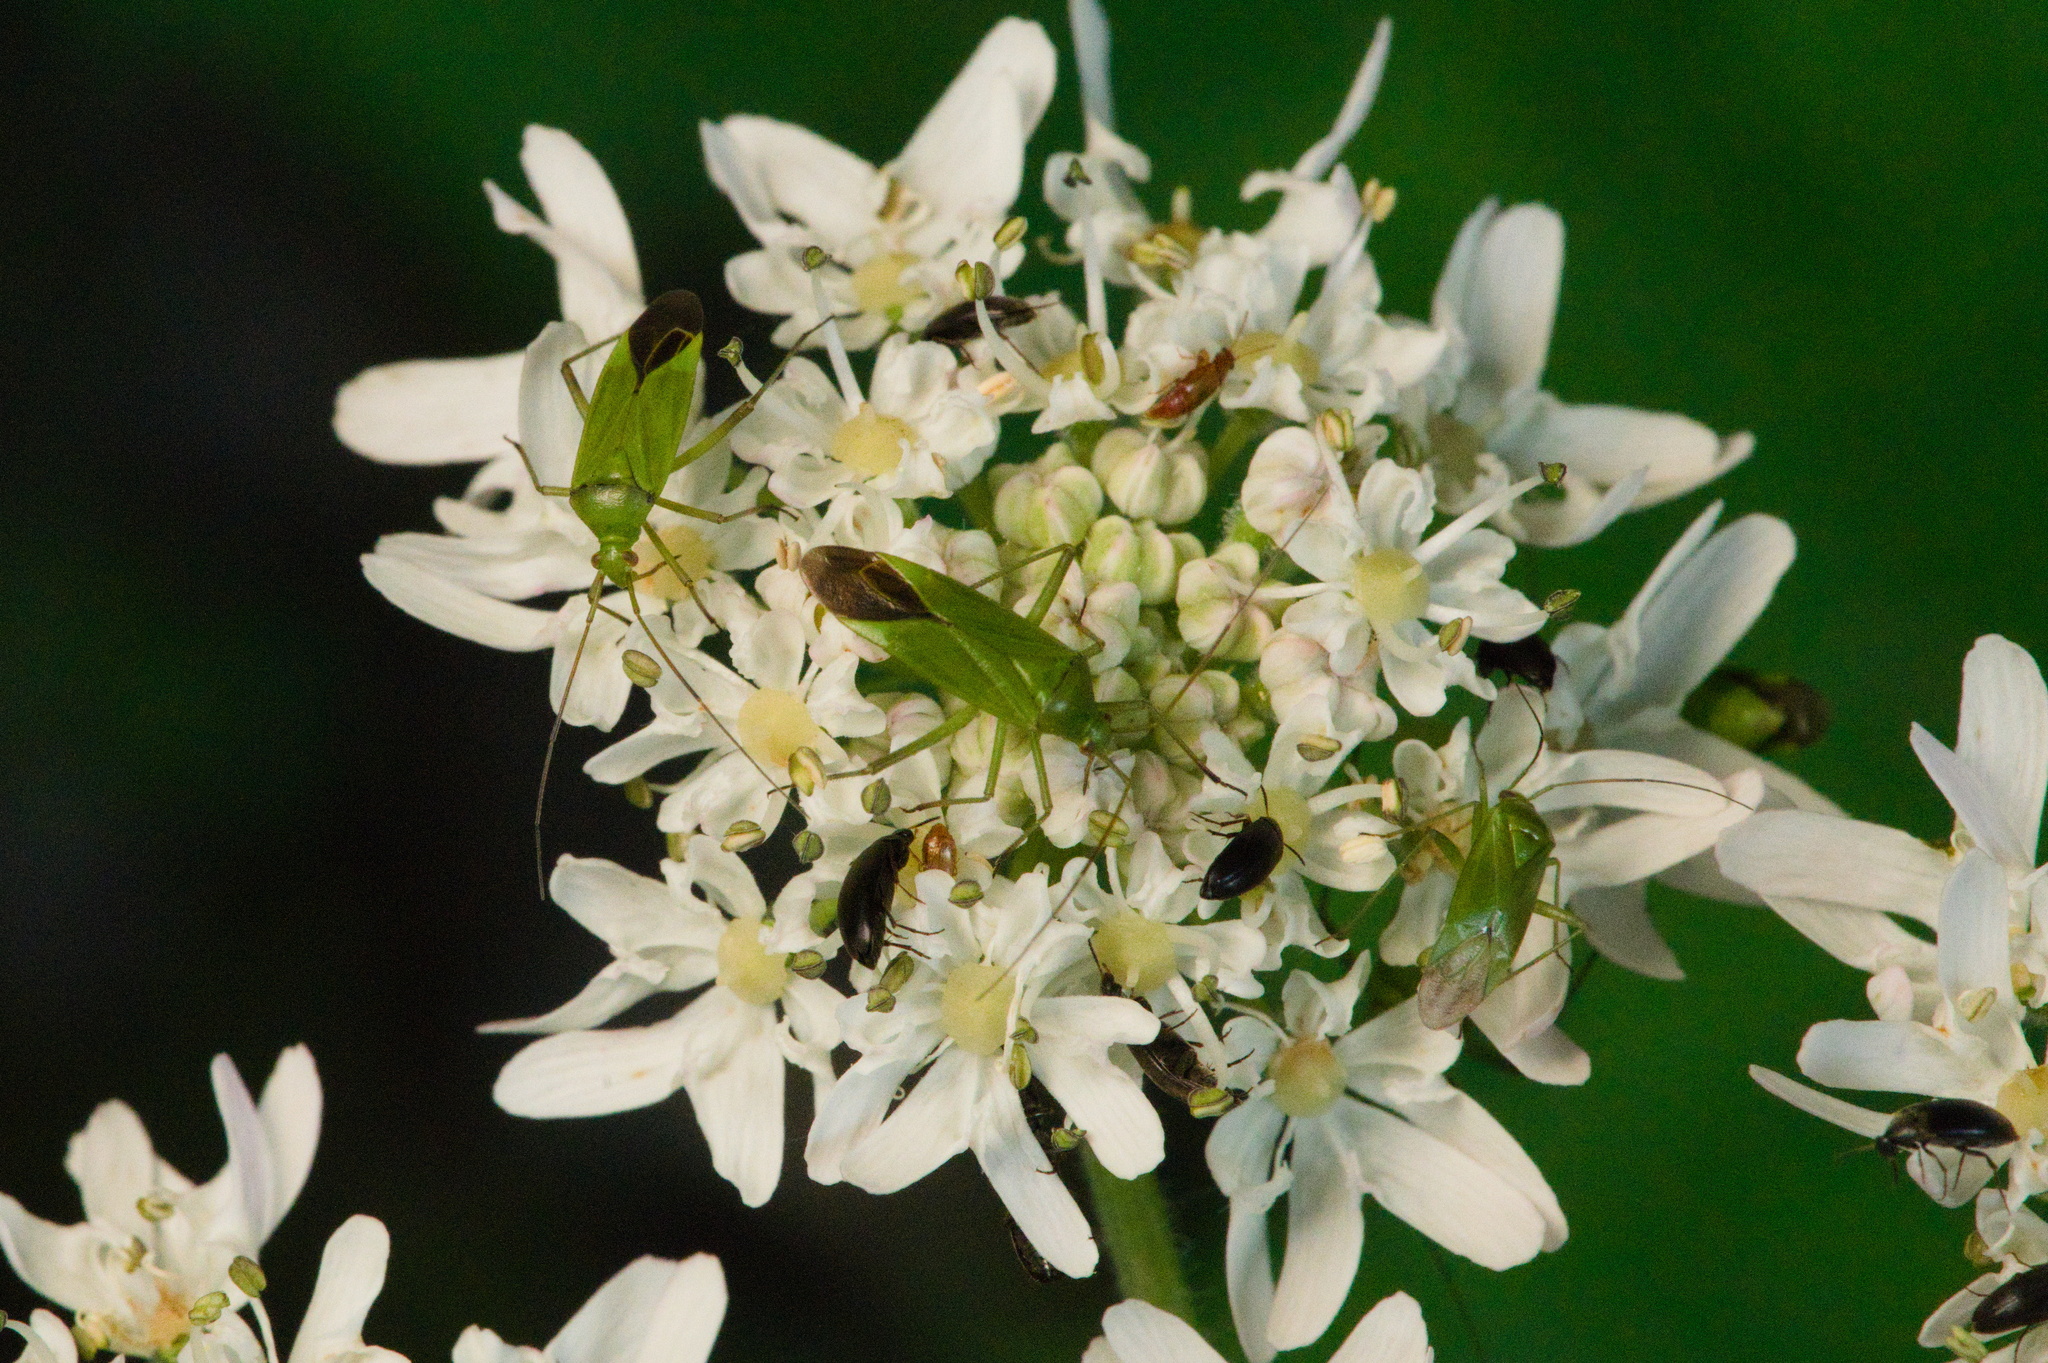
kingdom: Animalia
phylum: Arthropoda
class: Insecta
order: Hemiptera
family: Miridae
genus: Calocoris
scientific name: Calocoris affinis
